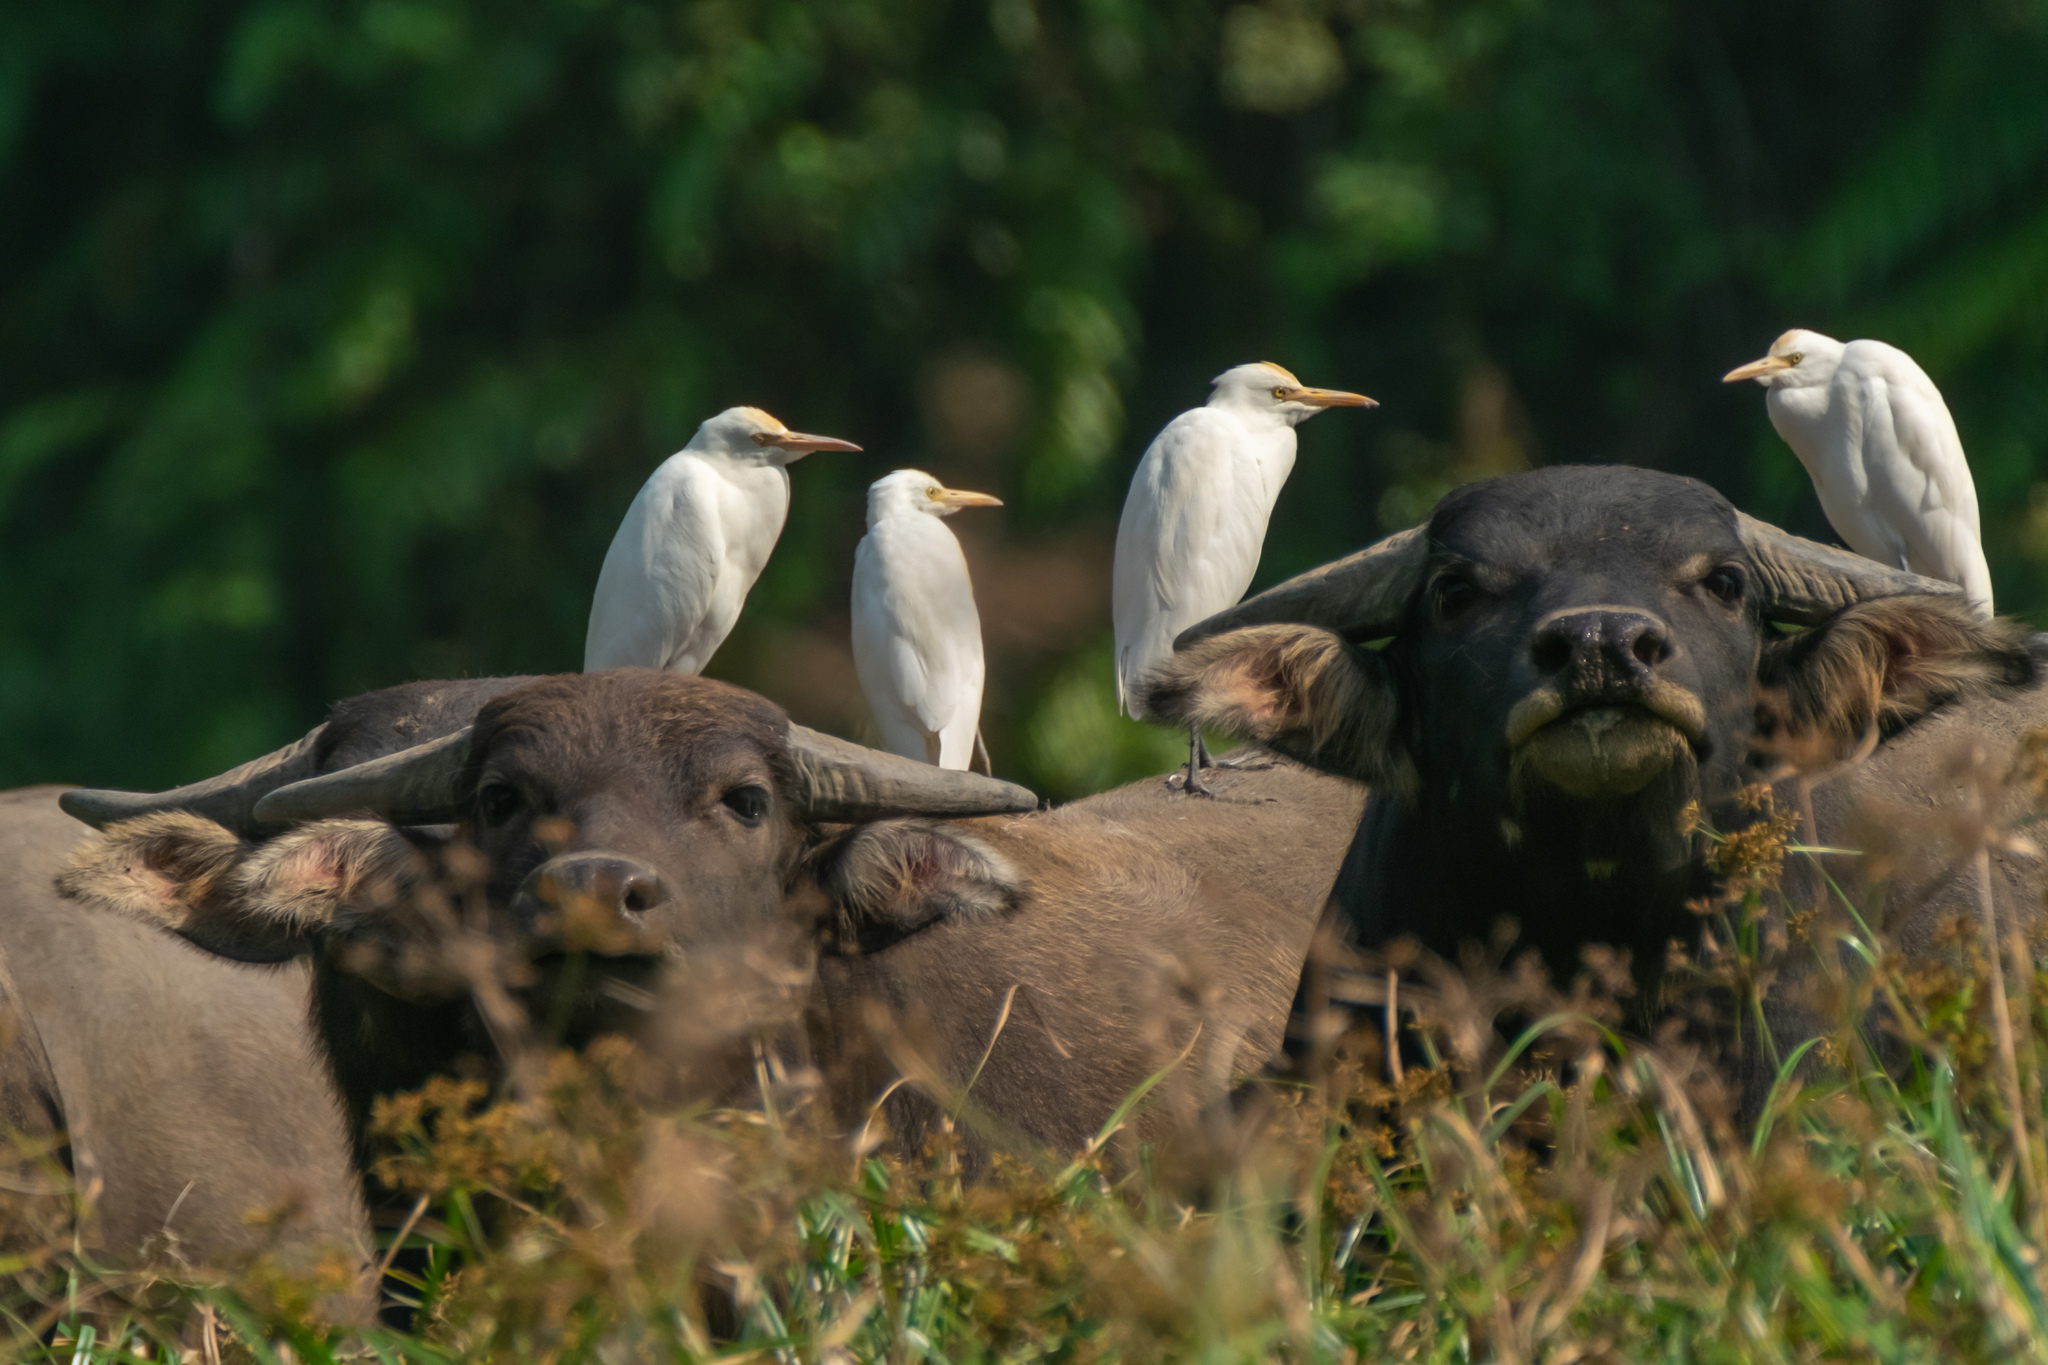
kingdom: Animalia
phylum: Chordata
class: Aves
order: Pelecaniformes
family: Ardeidae
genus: Bubulcus
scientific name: Bubulcus coromandus
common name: Eastern cattle egret
